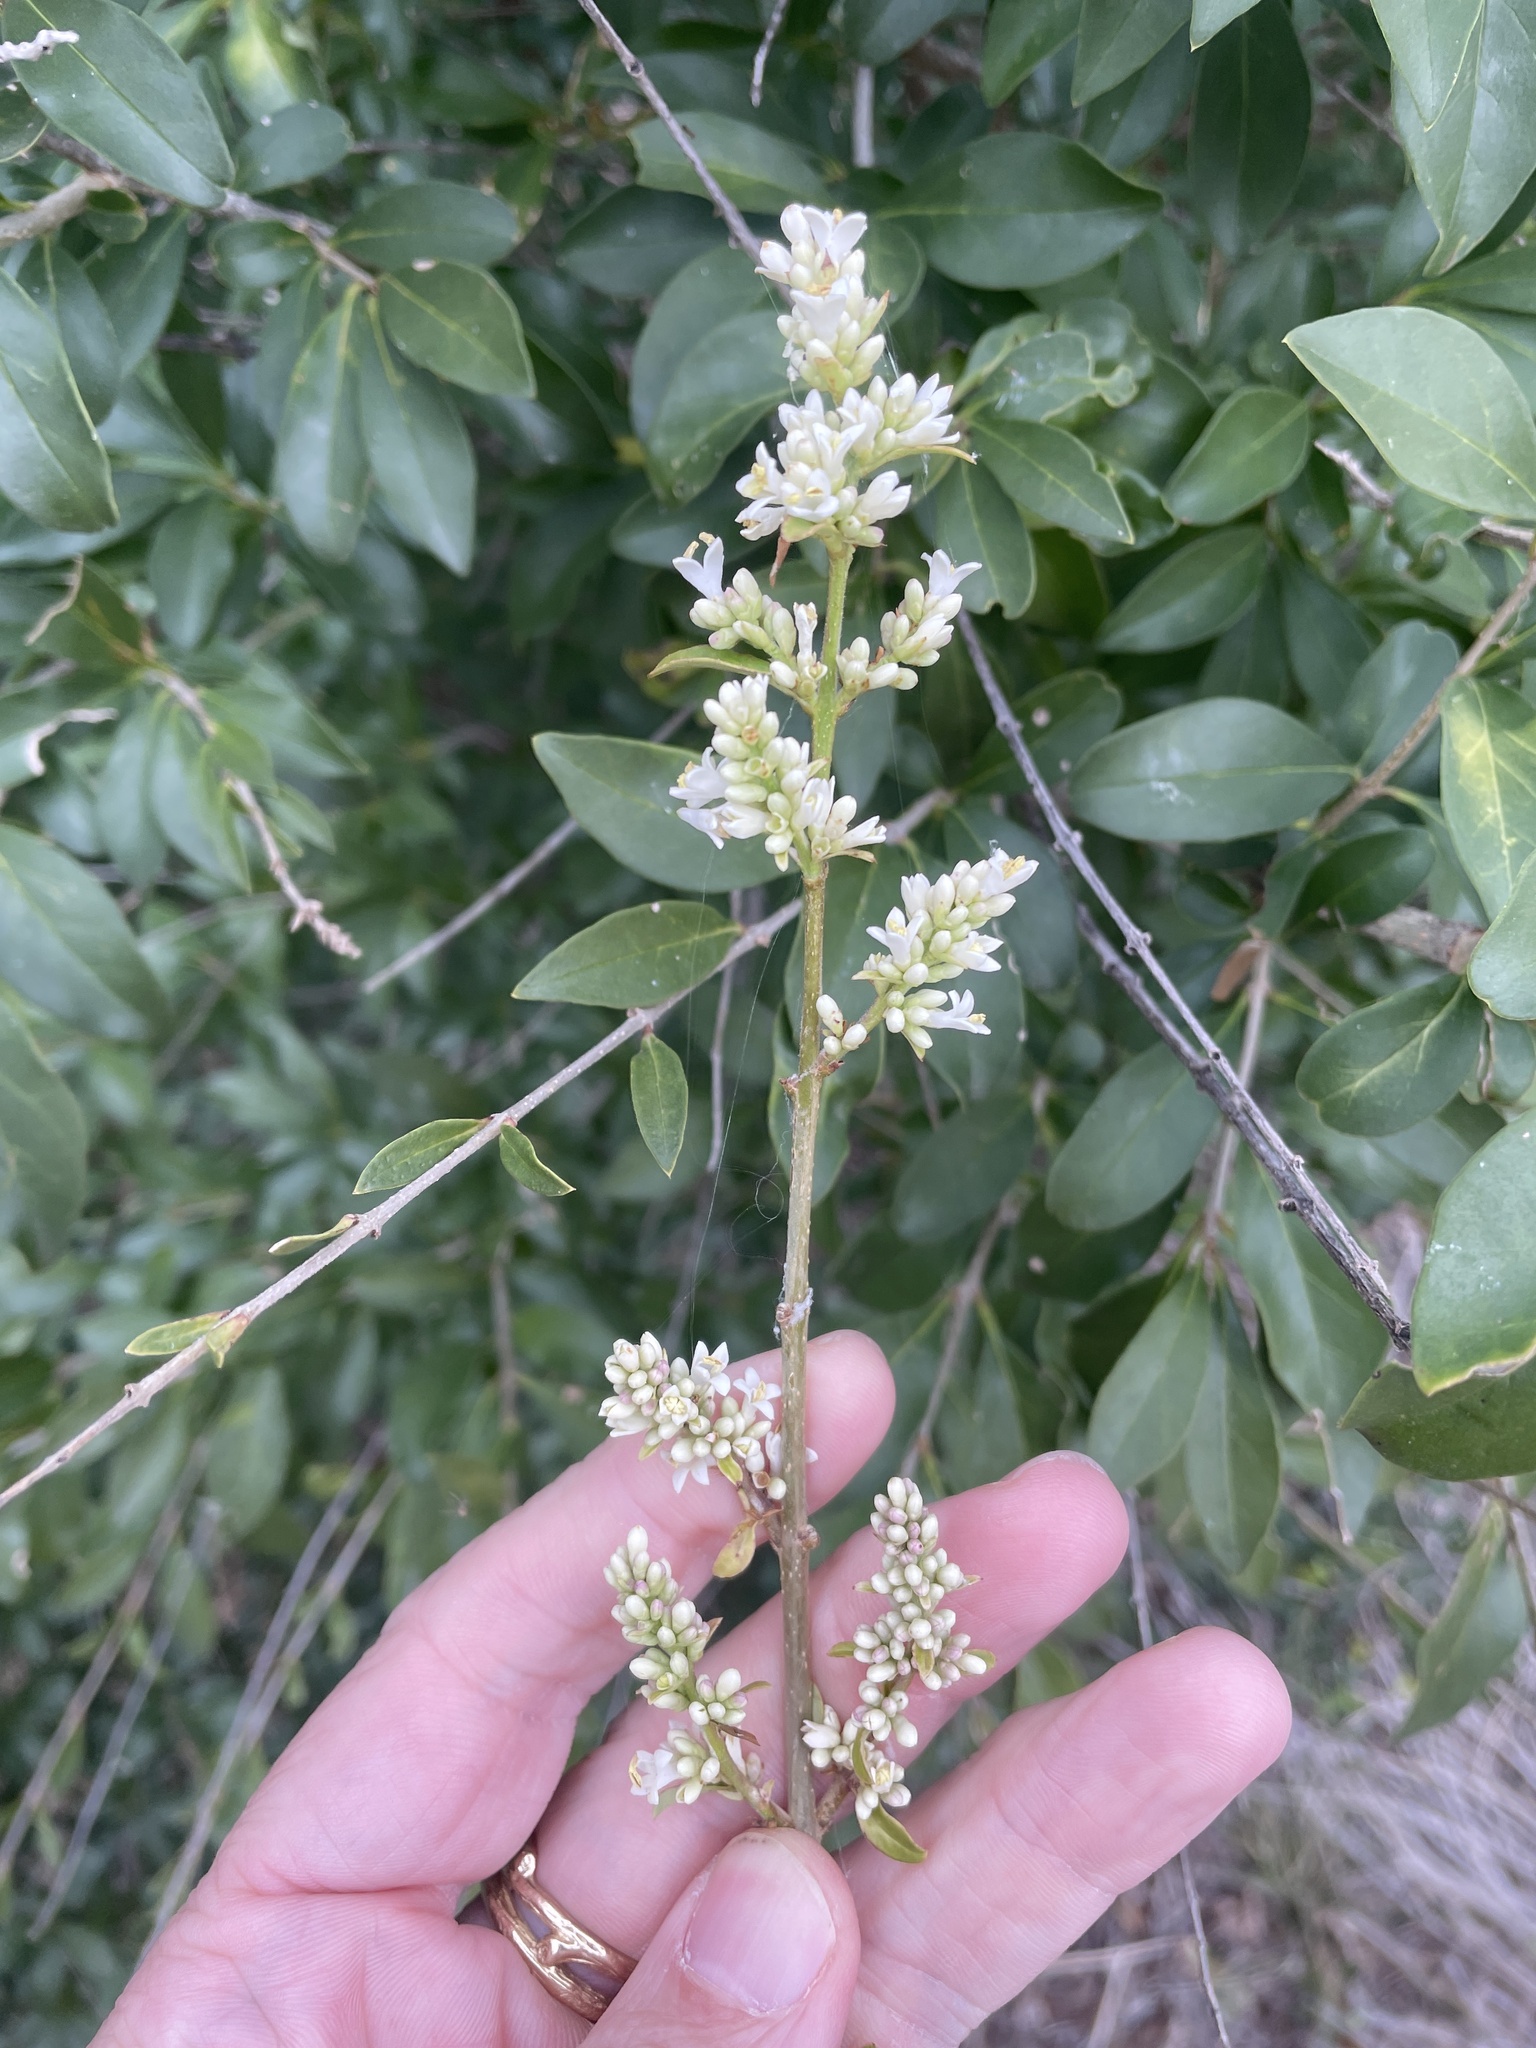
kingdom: Plantae
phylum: Tracheophyta
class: Magnoliopsida
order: Lamiales
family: Oleaceae
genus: Ligustrum
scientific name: Ligustrum quihoui
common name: Waxyleaf privet
